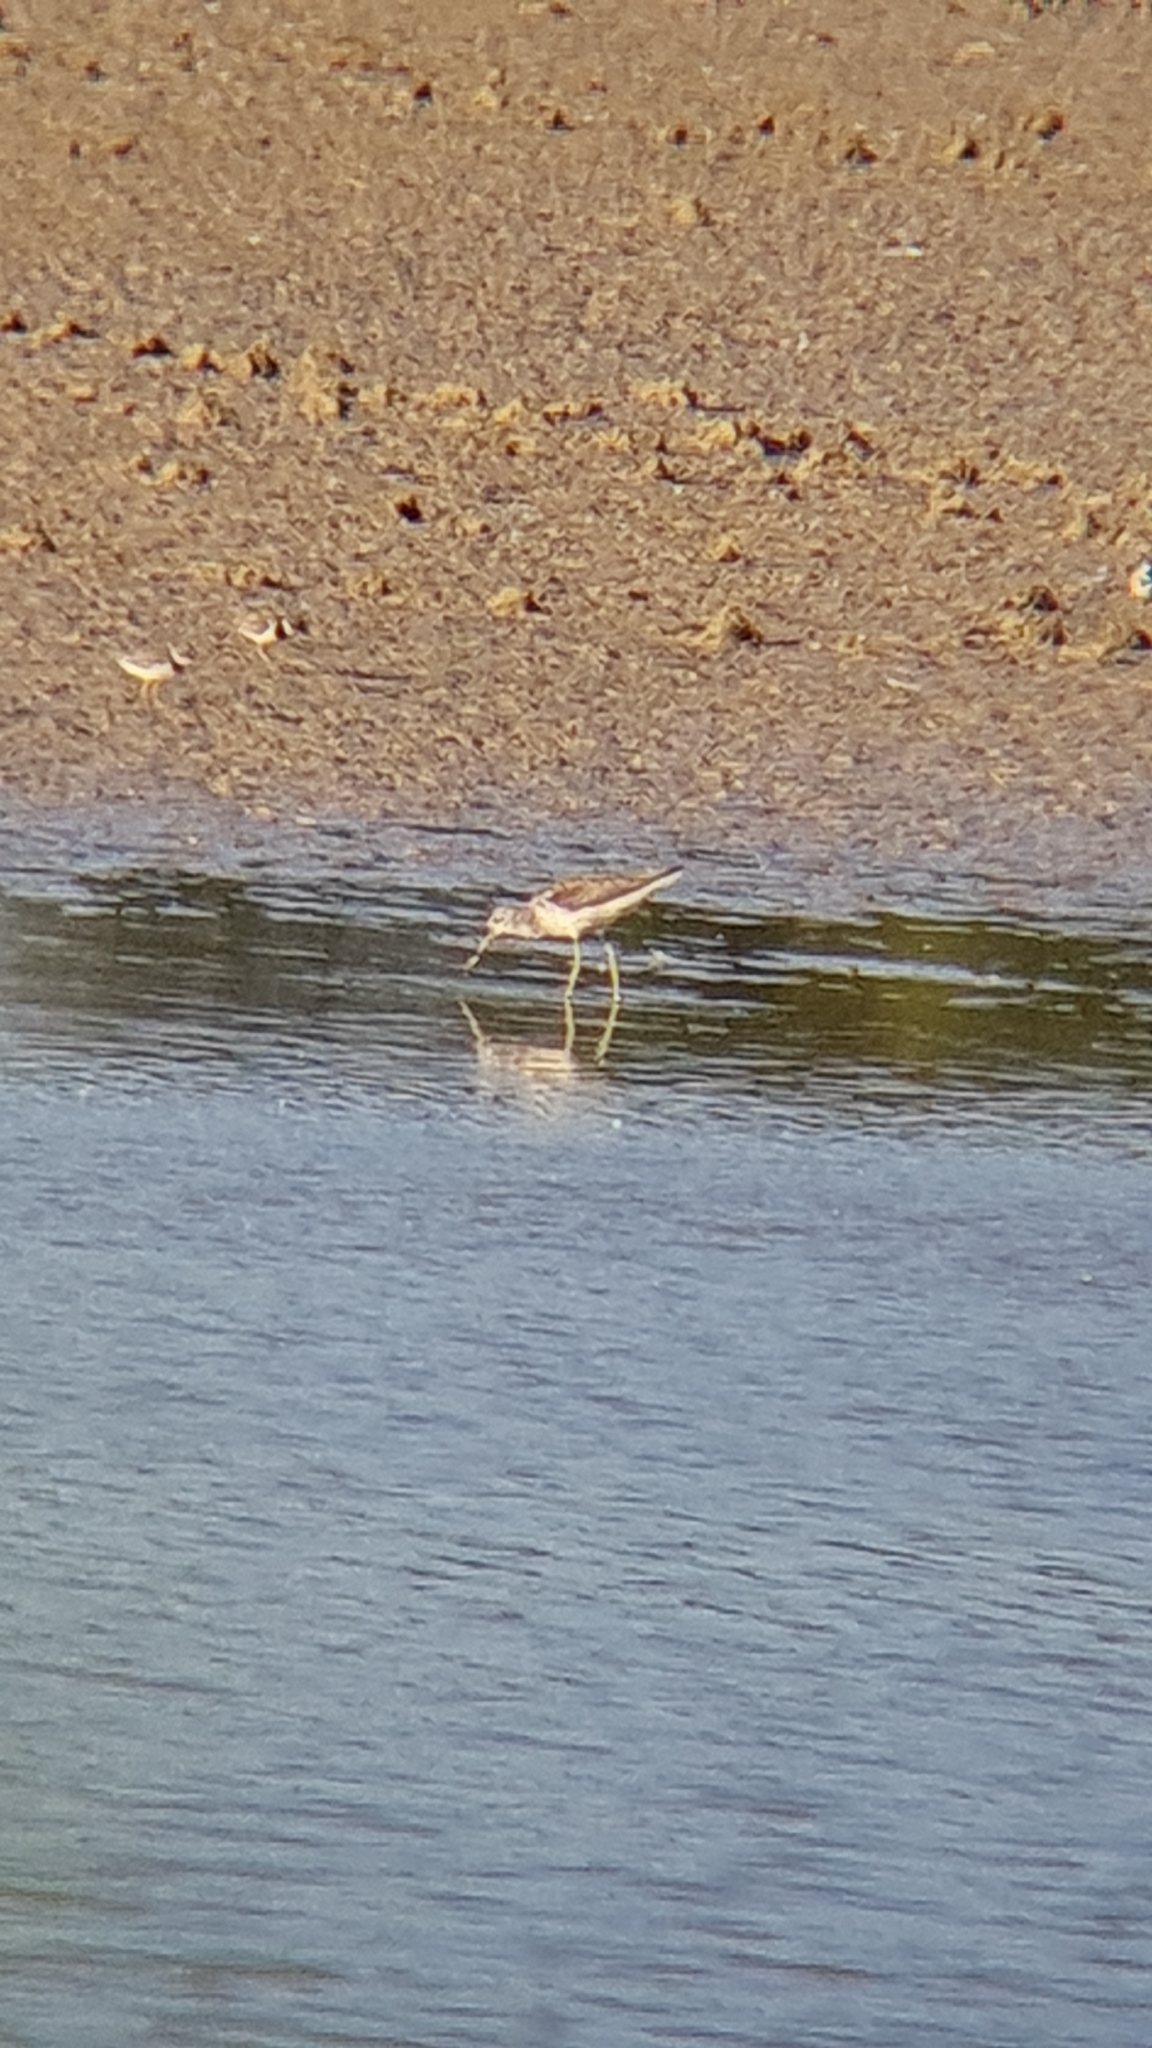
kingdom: Animalia
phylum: Chordata
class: Aves
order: Charadriiformes
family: Scolopacidae
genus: Tringa
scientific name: Tringa nebularia
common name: Common greenshank
